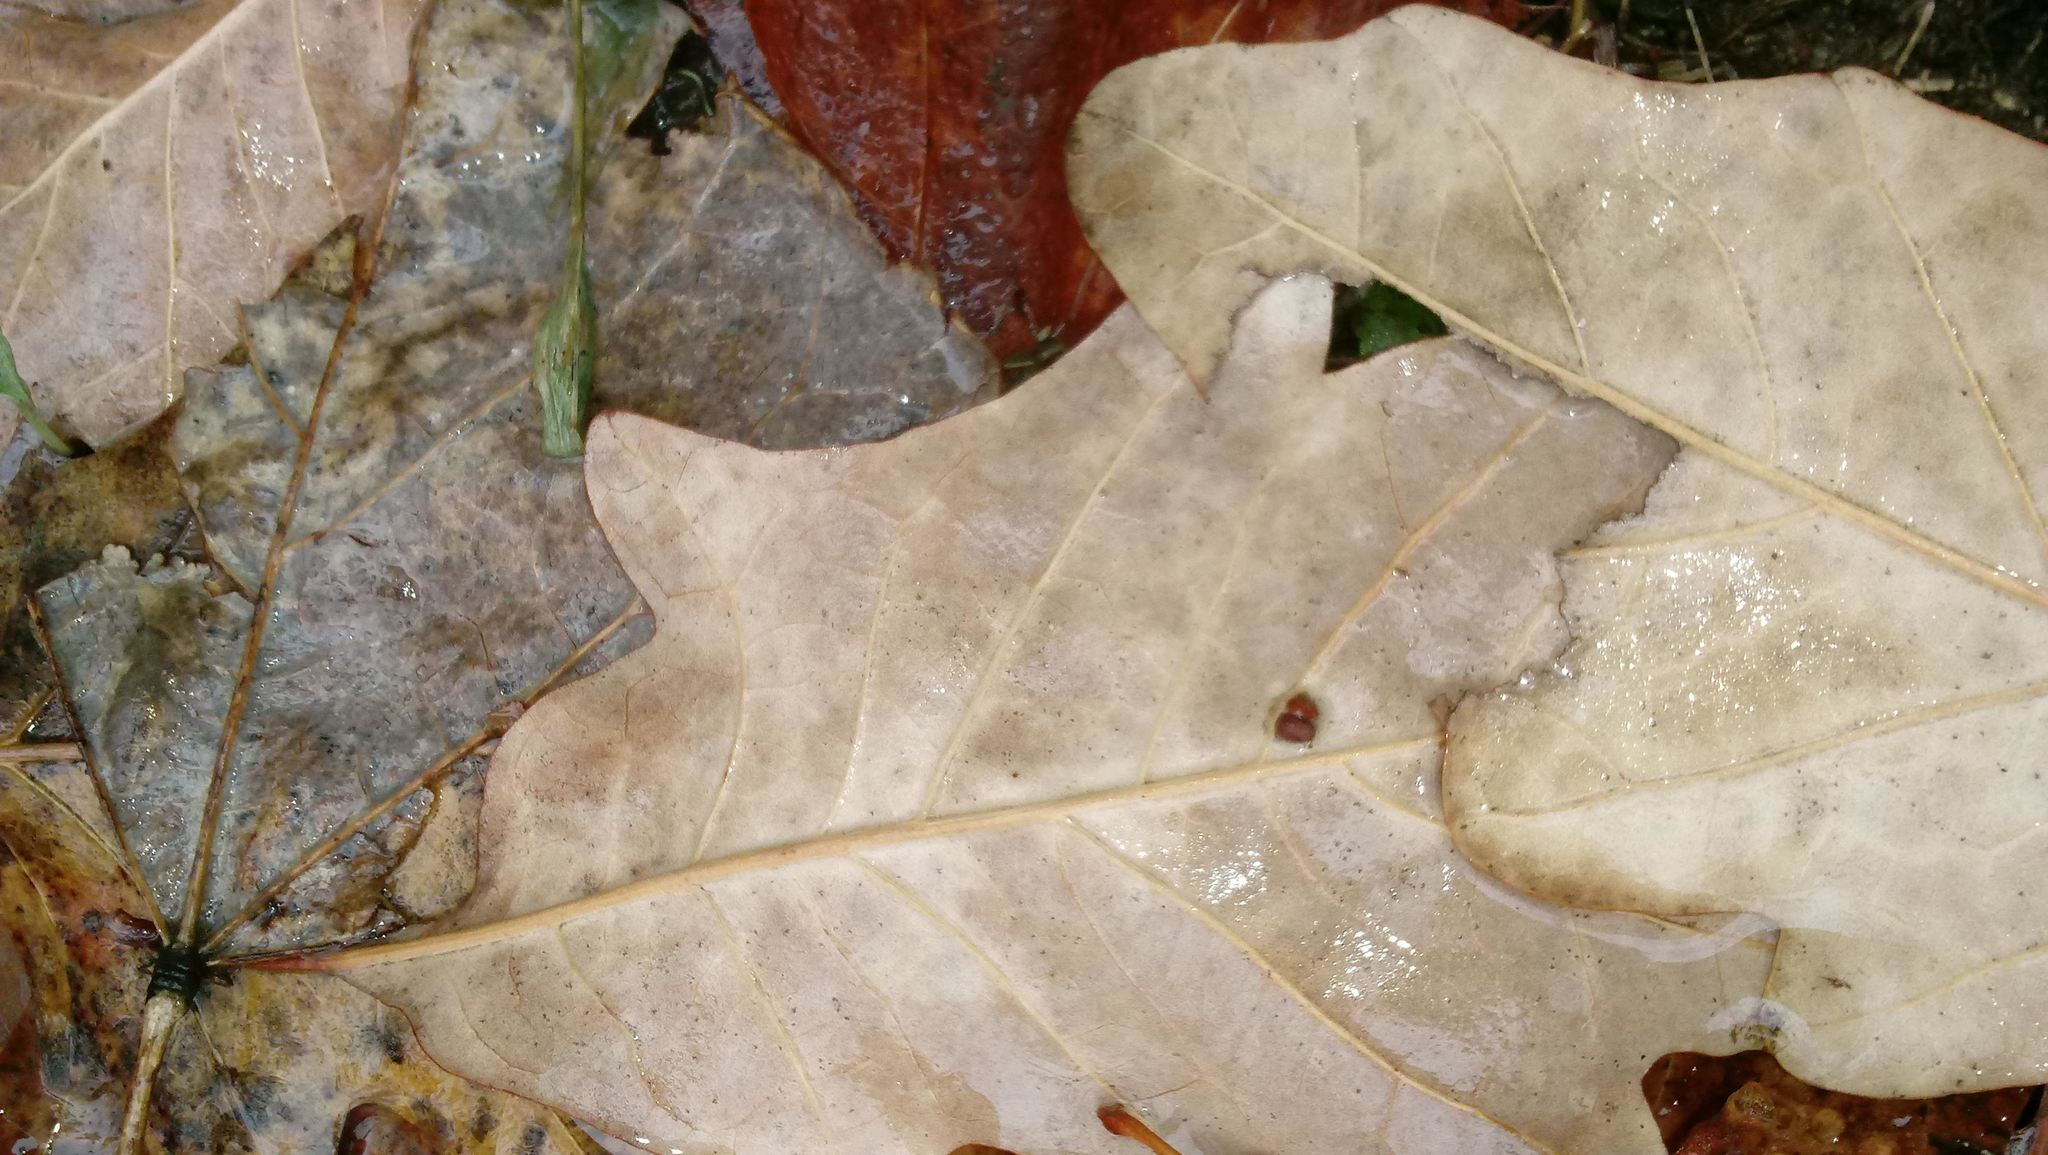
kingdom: Animalia
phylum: Arthropoda
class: Insecta
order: Hymenoptera
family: Cynipidae
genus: Andricus
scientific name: Andricus Druon ignotum
